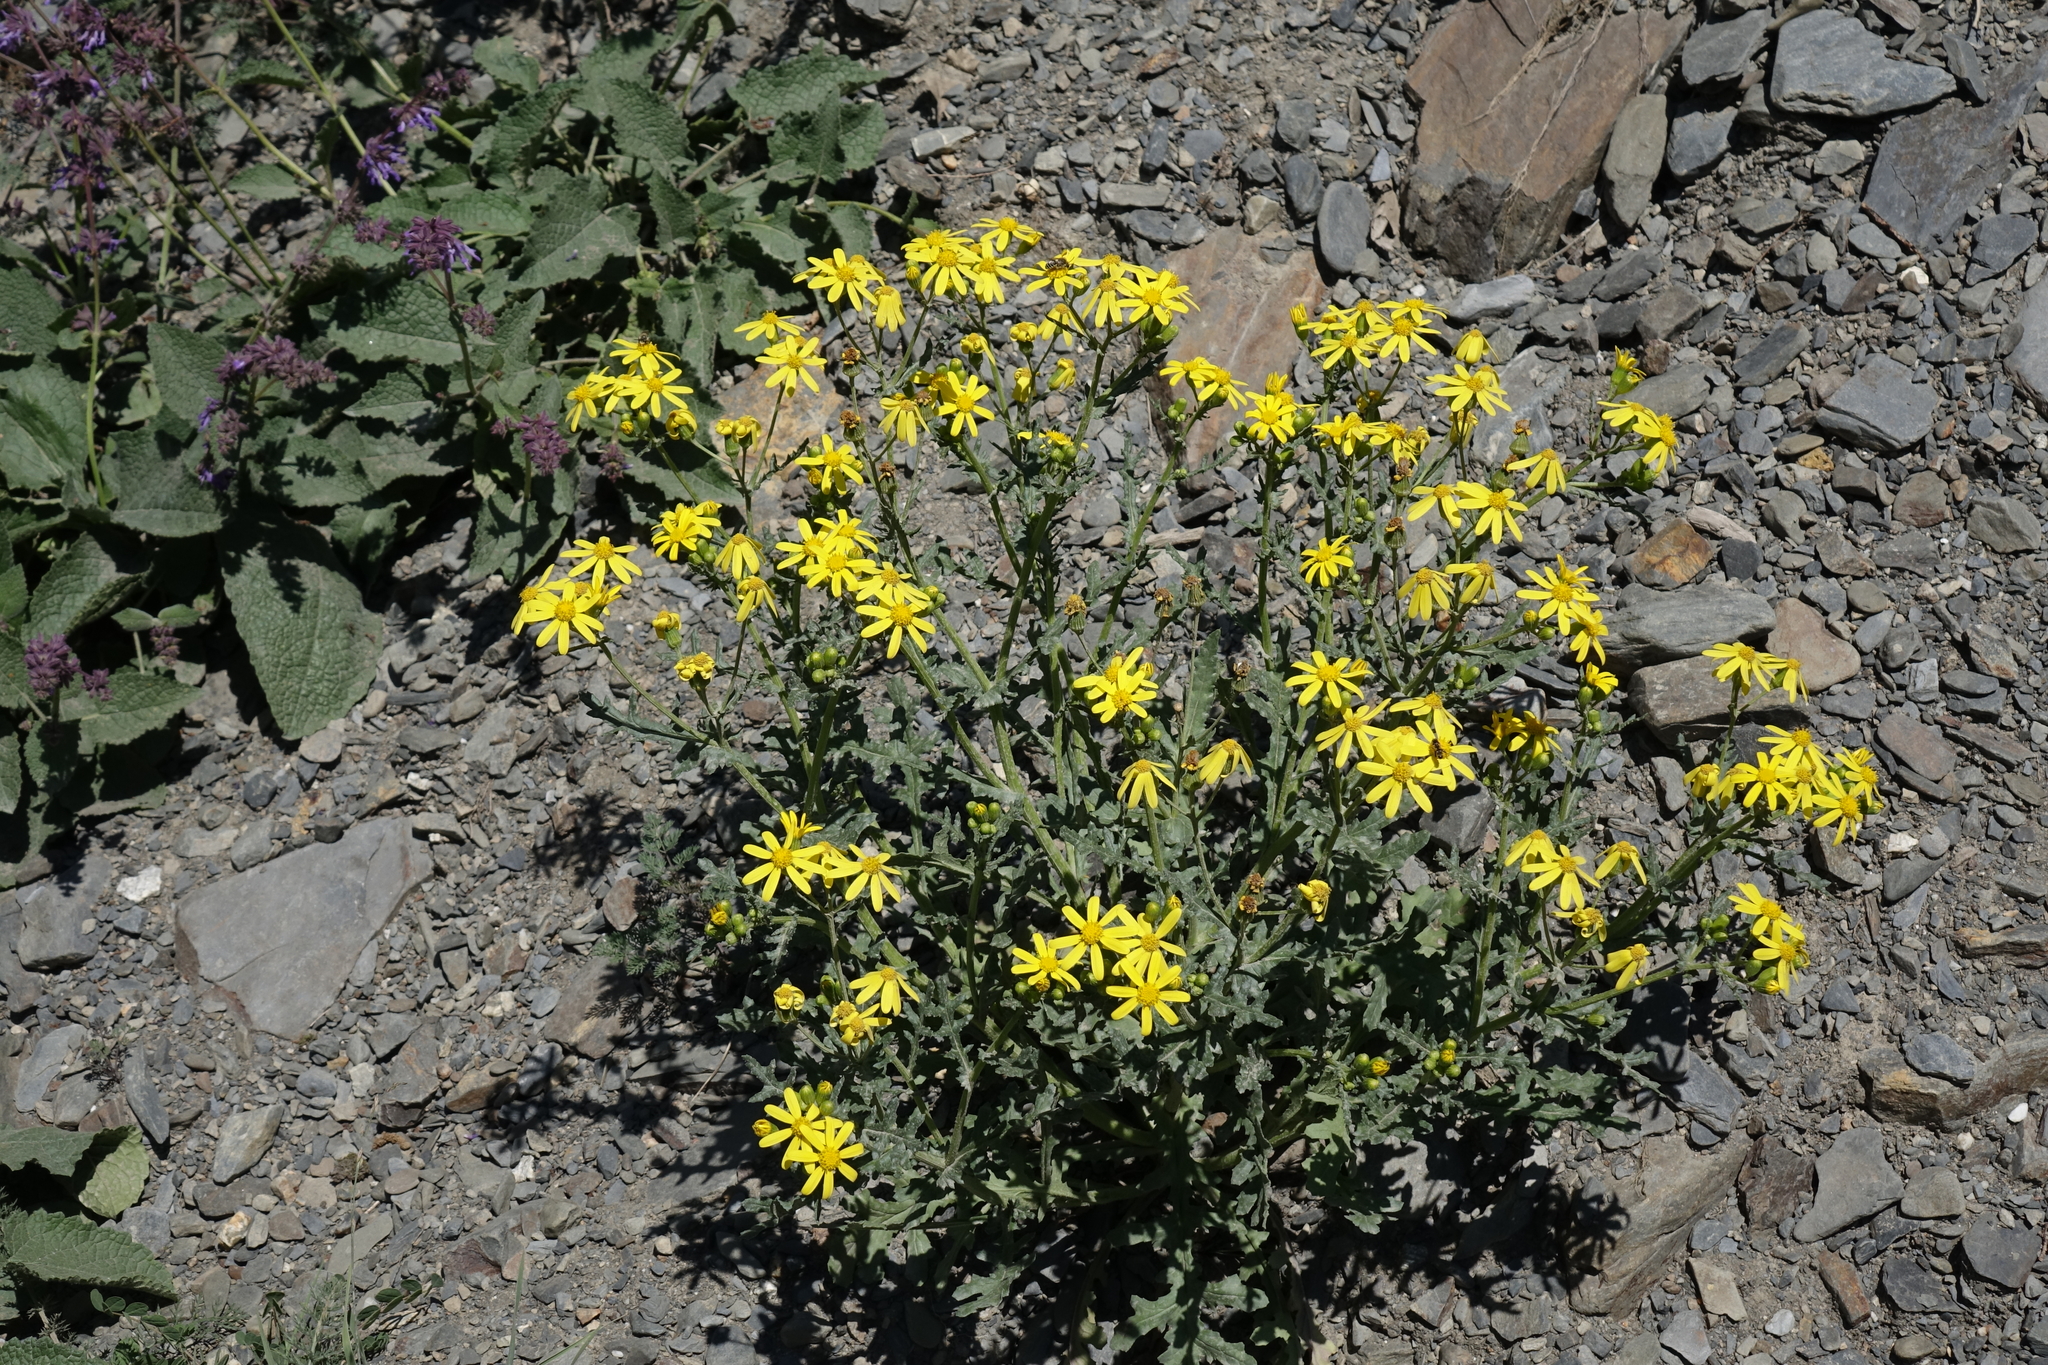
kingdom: Plantae
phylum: Tracheophyta
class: Magnoliopsida
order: Asterales
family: Asteraceae
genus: Senecio
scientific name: Senecio leucanthemifolius
